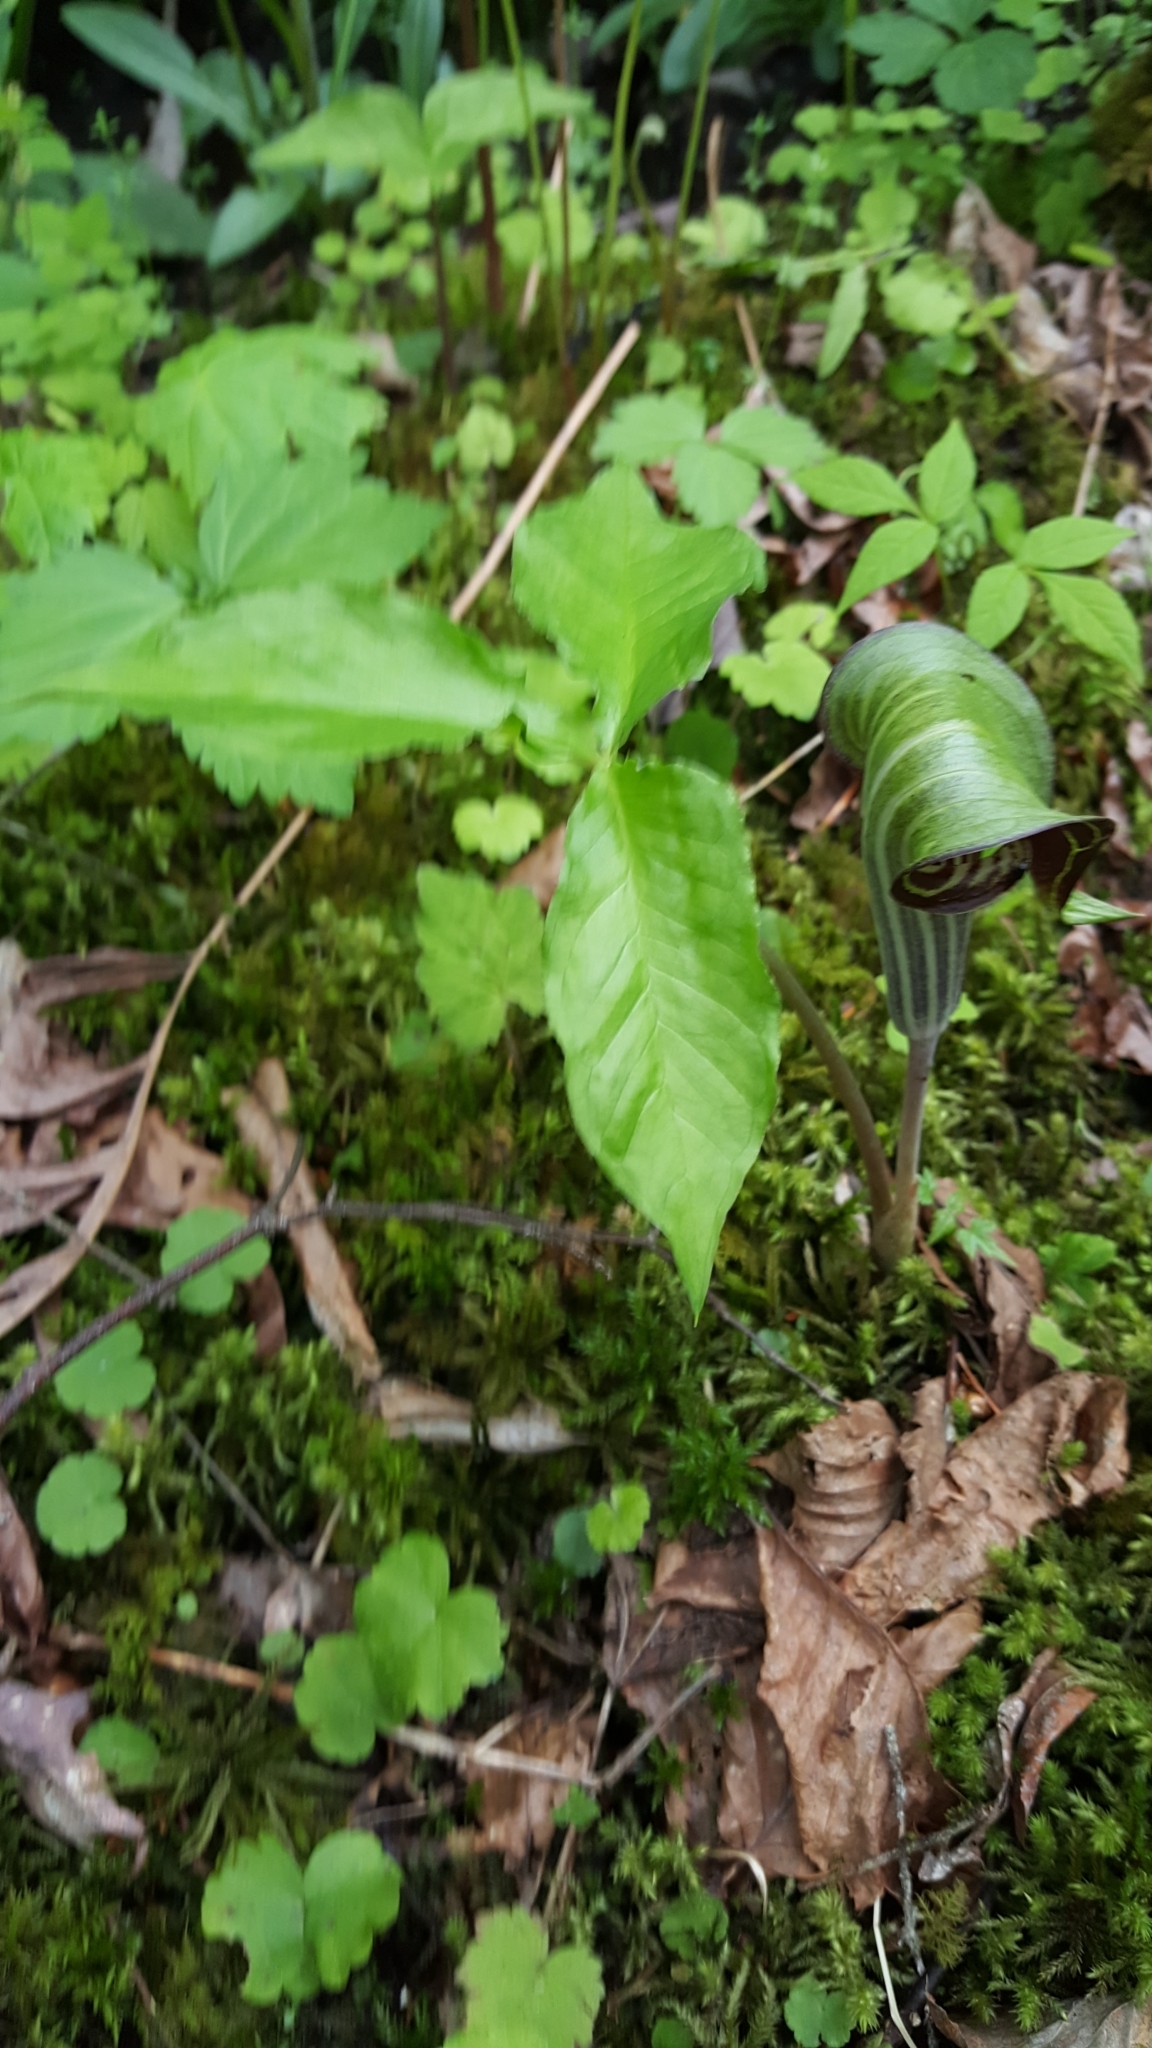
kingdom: Plantae
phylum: Tracheophyta
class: Liliopsida
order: Alismatales
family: Araceae
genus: Arisaema
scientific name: Arisaema triphyllum
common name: Jack-in-the-pulpit
